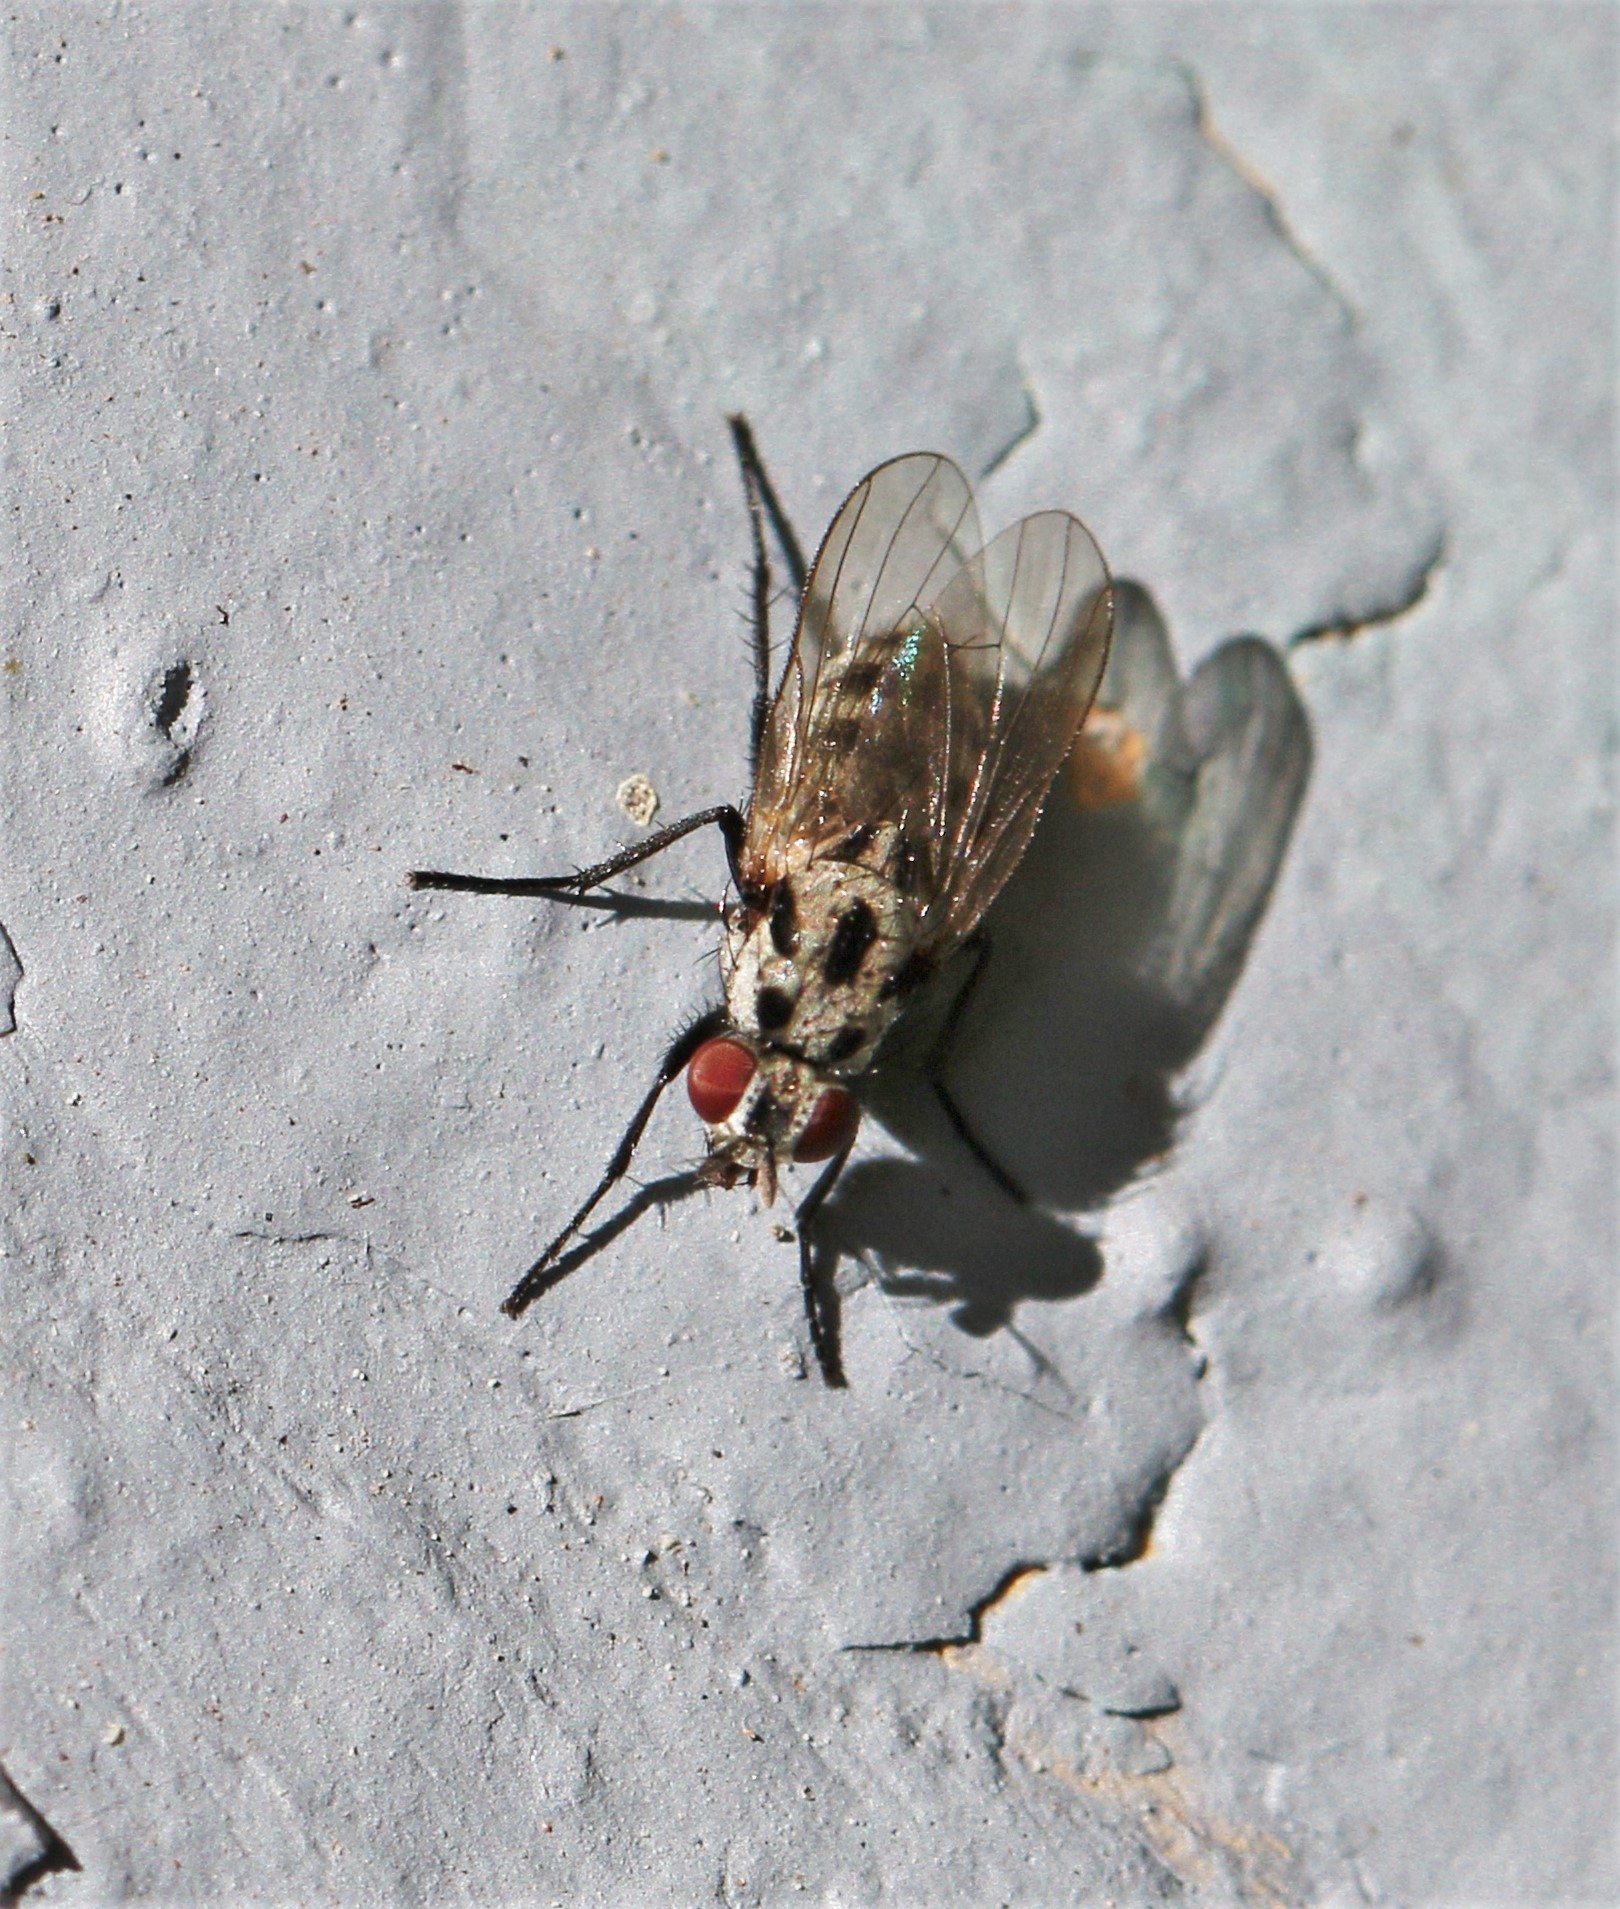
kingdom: Animalia
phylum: Arthropoda
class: Insecta
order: Diptera
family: Anthomyiidae
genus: Anthomyia
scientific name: Anthomyia pluvialis
